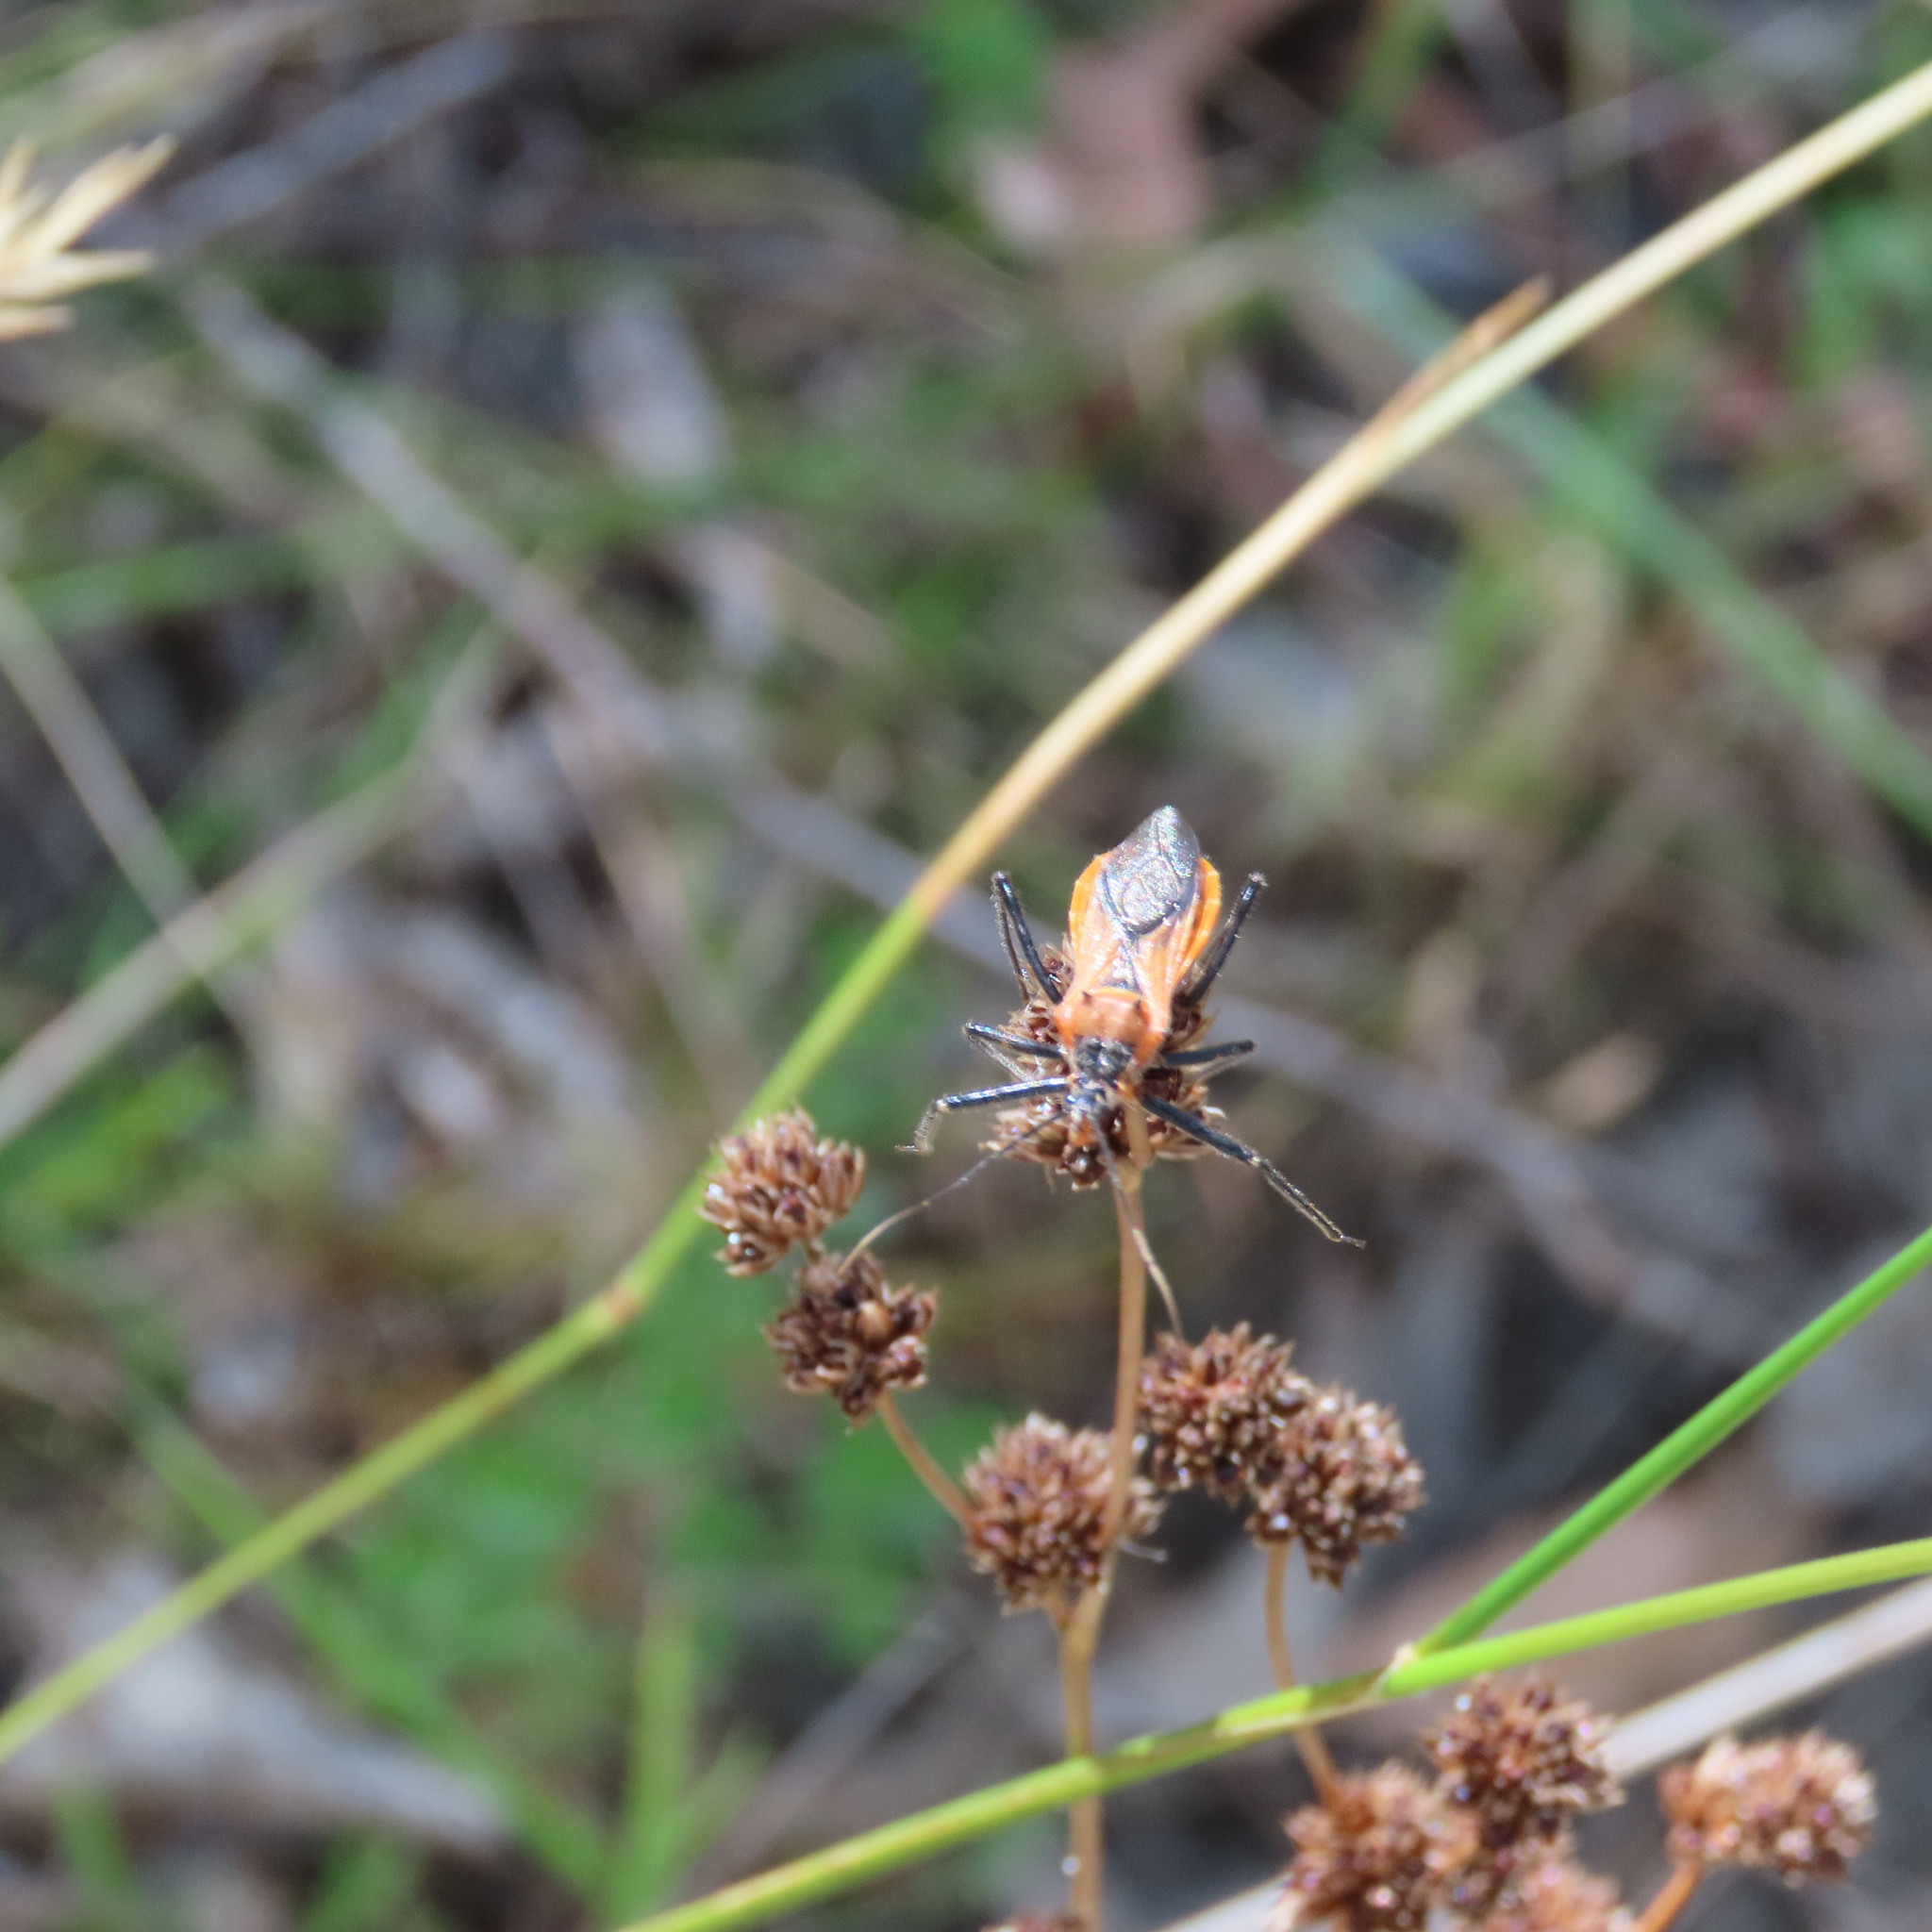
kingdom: Animalia
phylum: Arthropoda
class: Insecta
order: Hemiptera
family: Reduviidae
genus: Gminatus
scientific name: Gminatus australis
